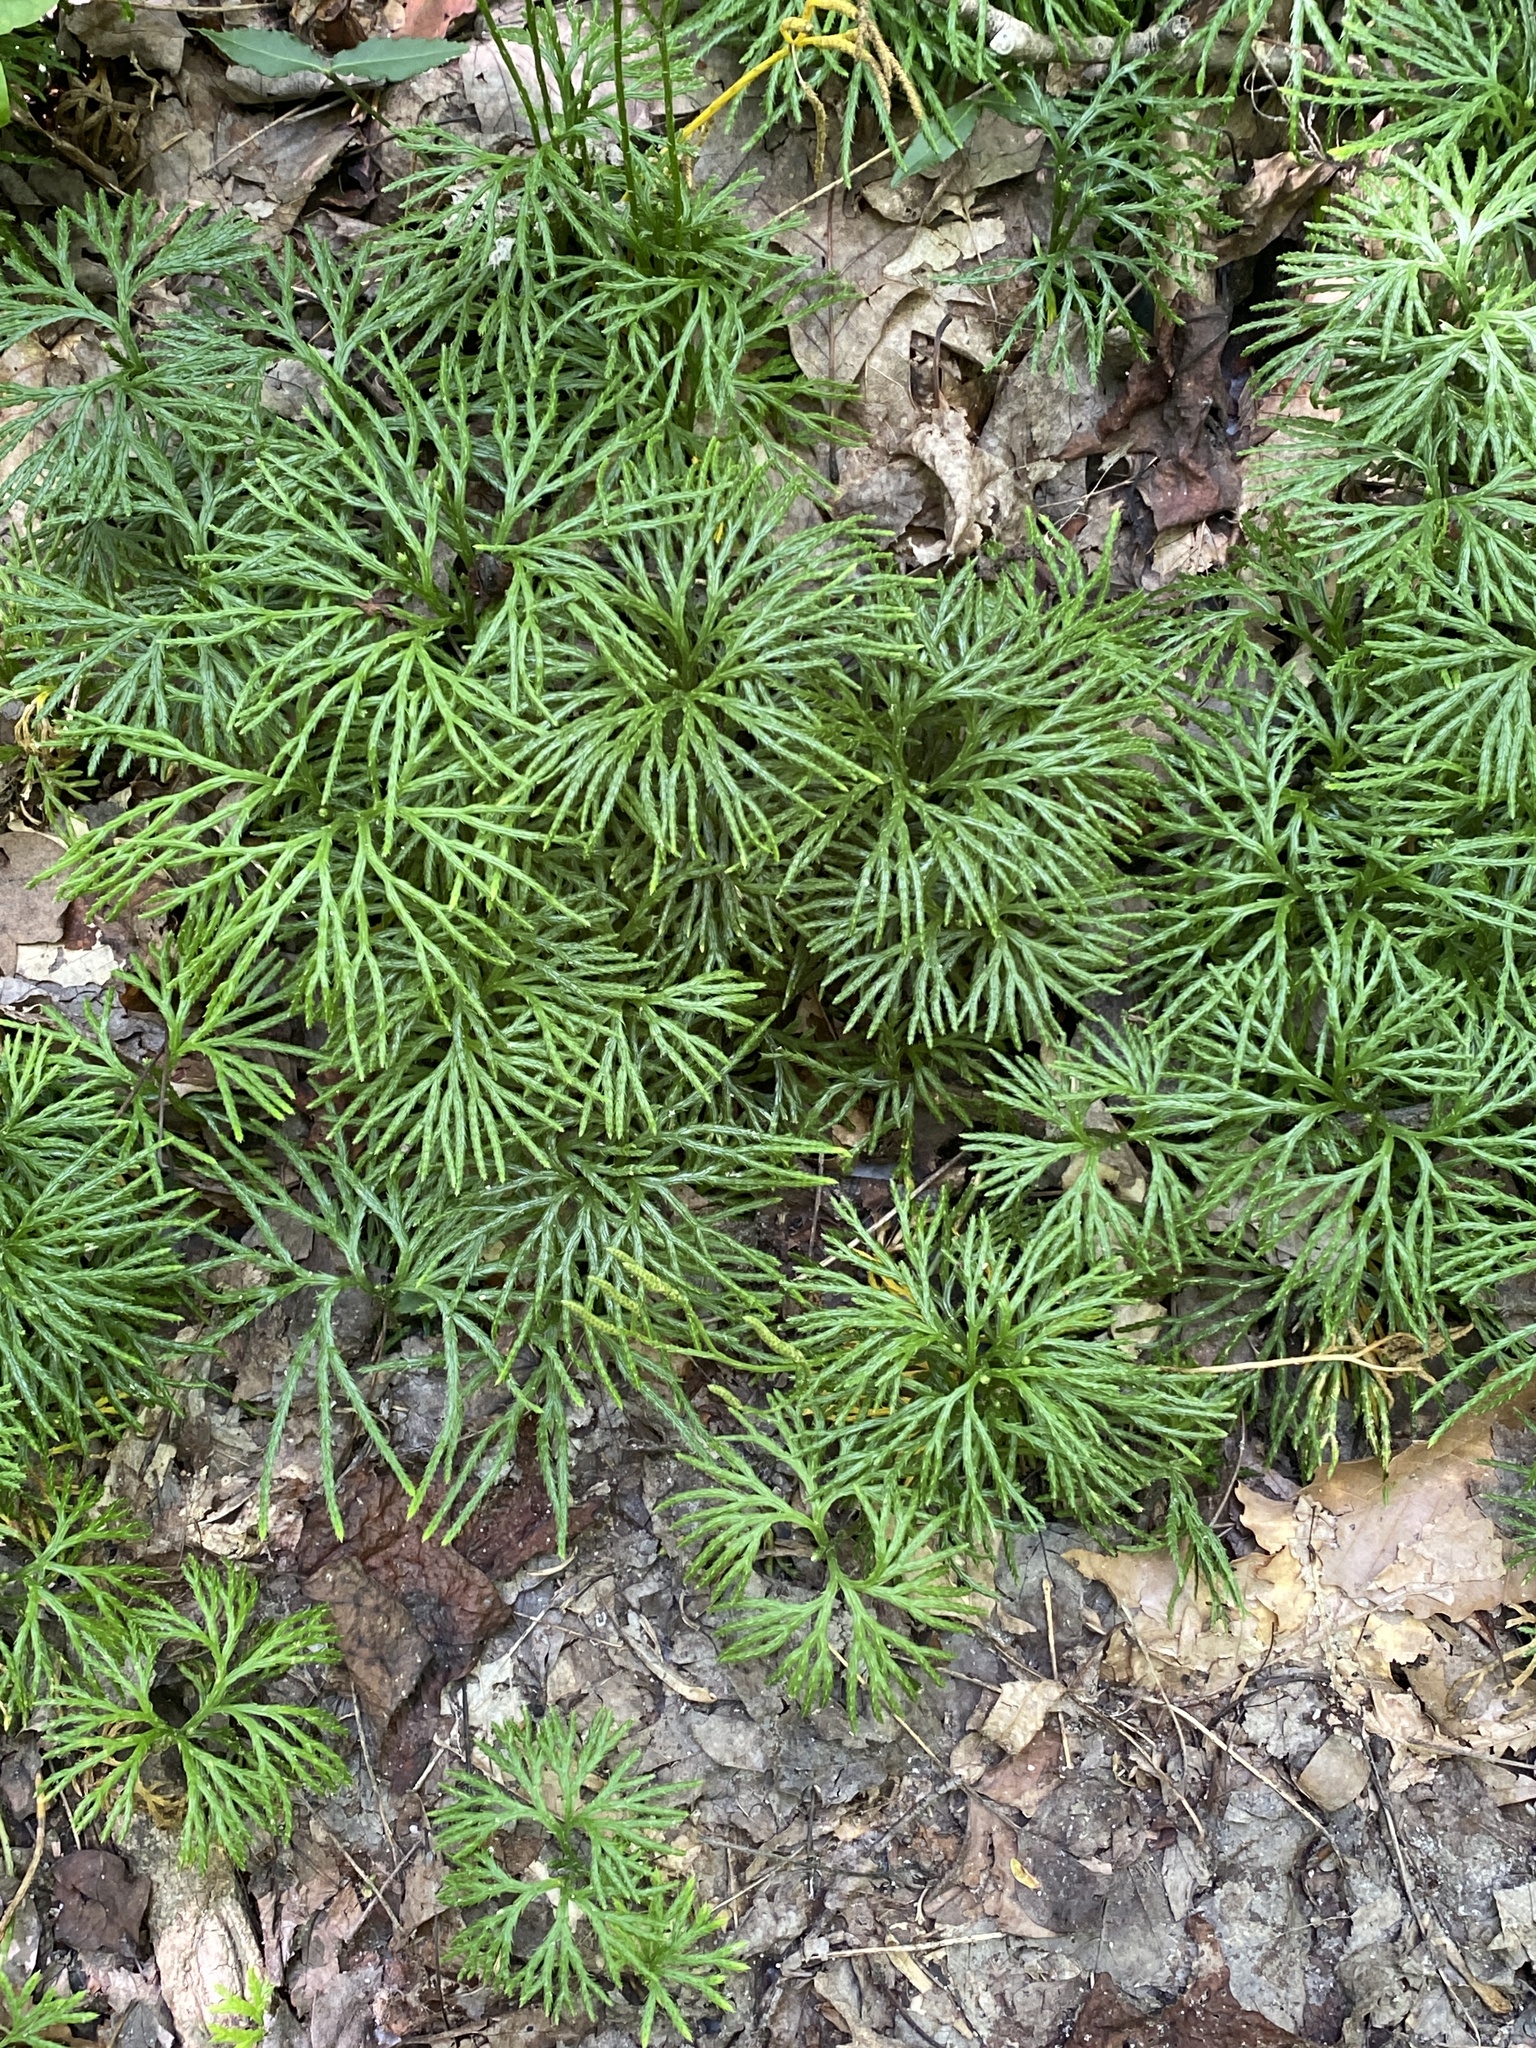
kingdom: Plantae
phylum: Tracheophyta
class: Lycopodiopsida
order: Lycopodiales
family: Lycopodiaceae
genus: Diphasiastrum
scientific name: Diphasiastrum digitatum
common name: Southern running-pine
